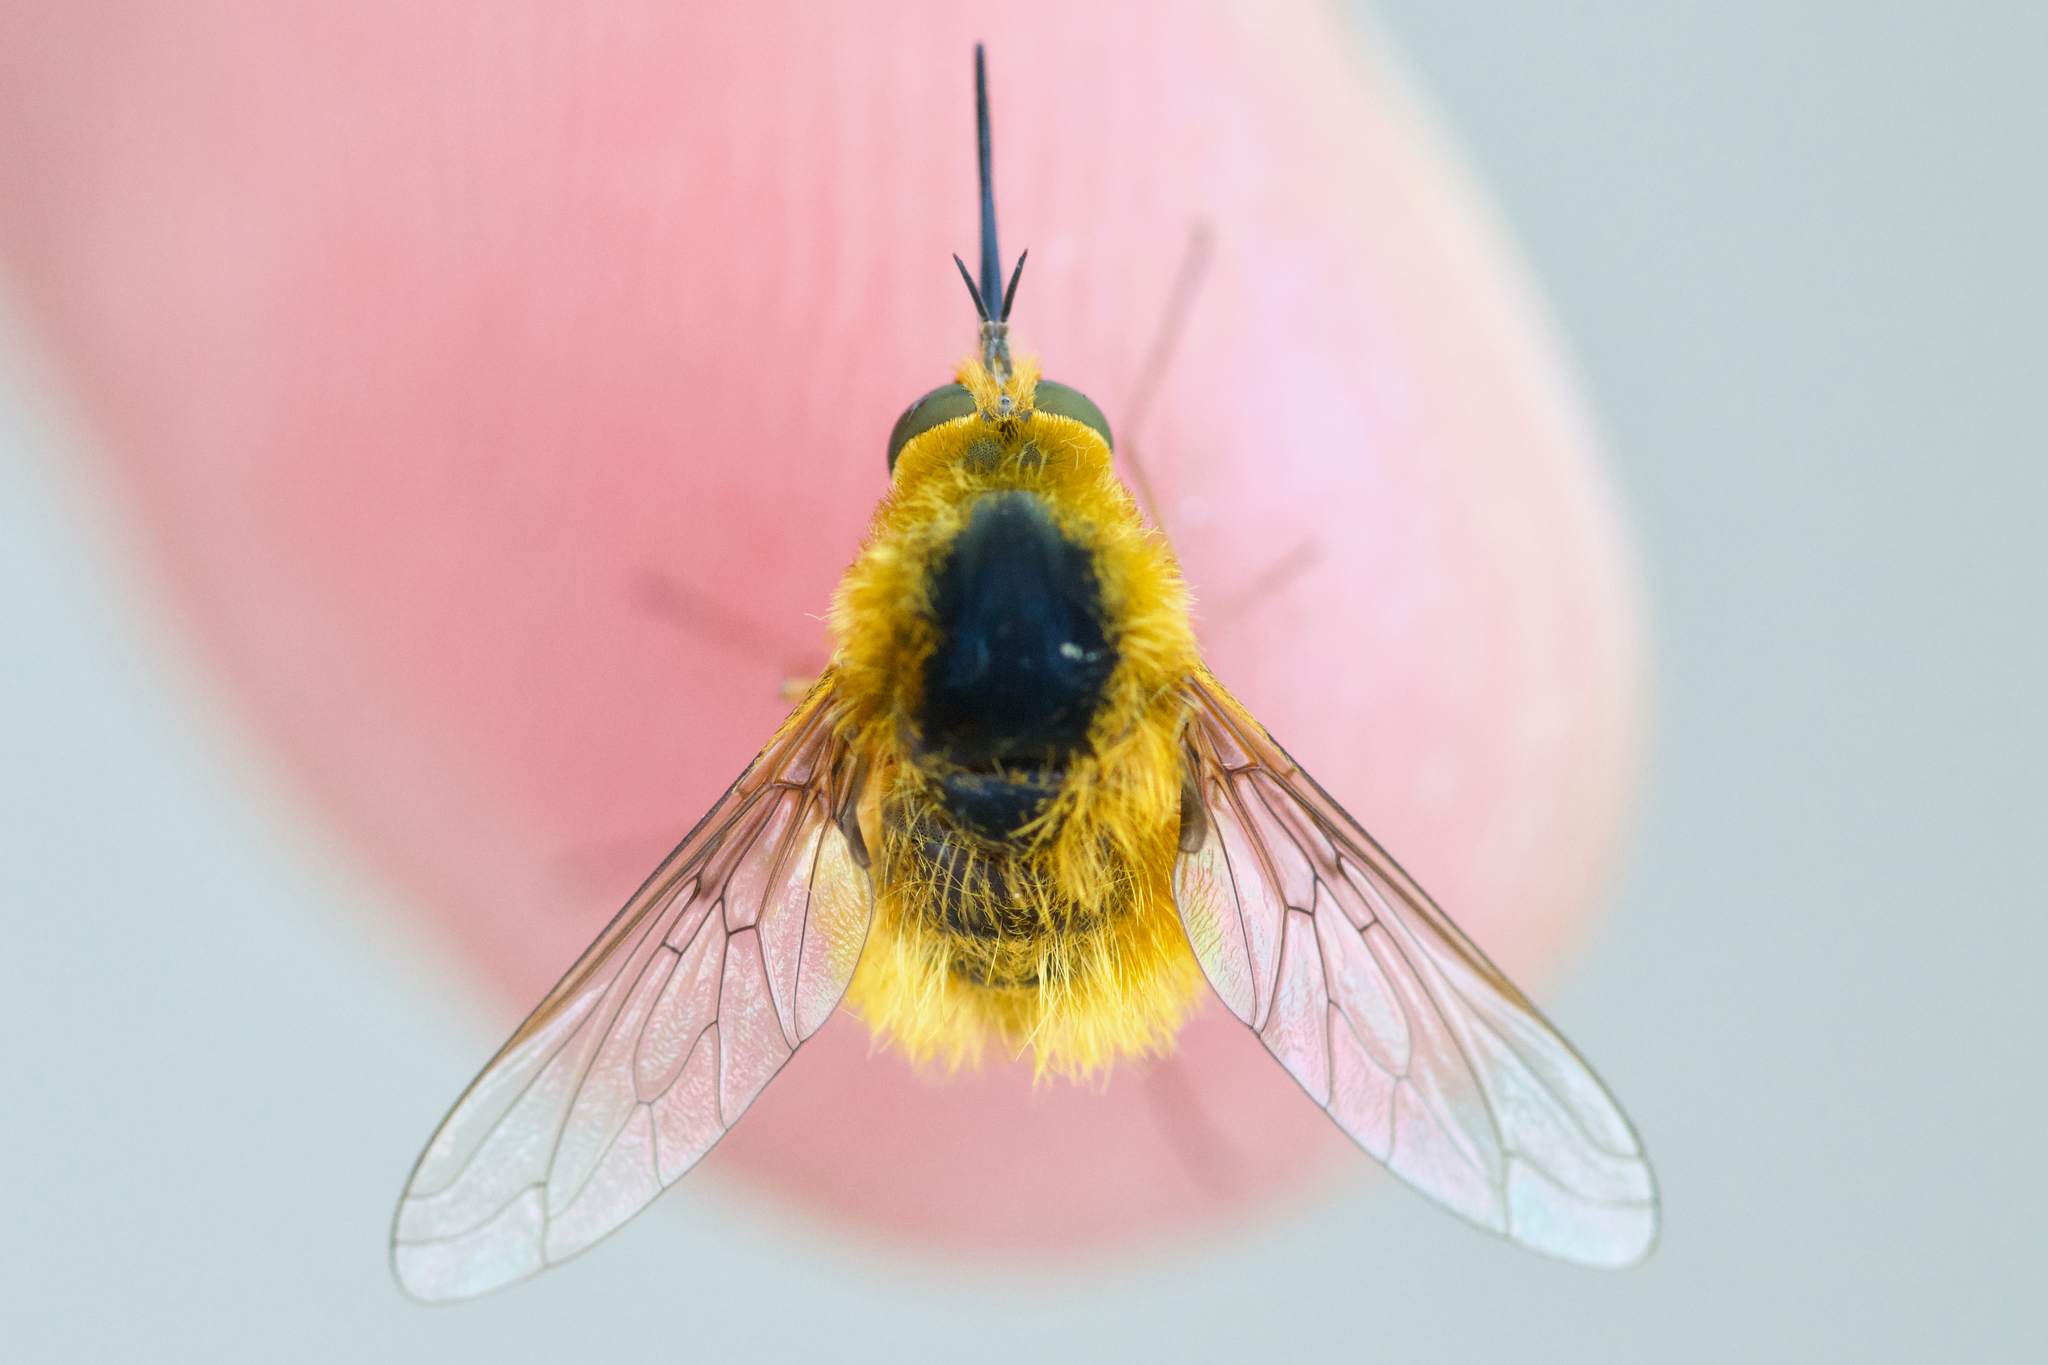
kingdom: Animalia
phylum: Arthropoda
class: Insecta
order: Diptera
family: Bombyliidae
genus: Bombylius
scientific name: Bombylius comanche
